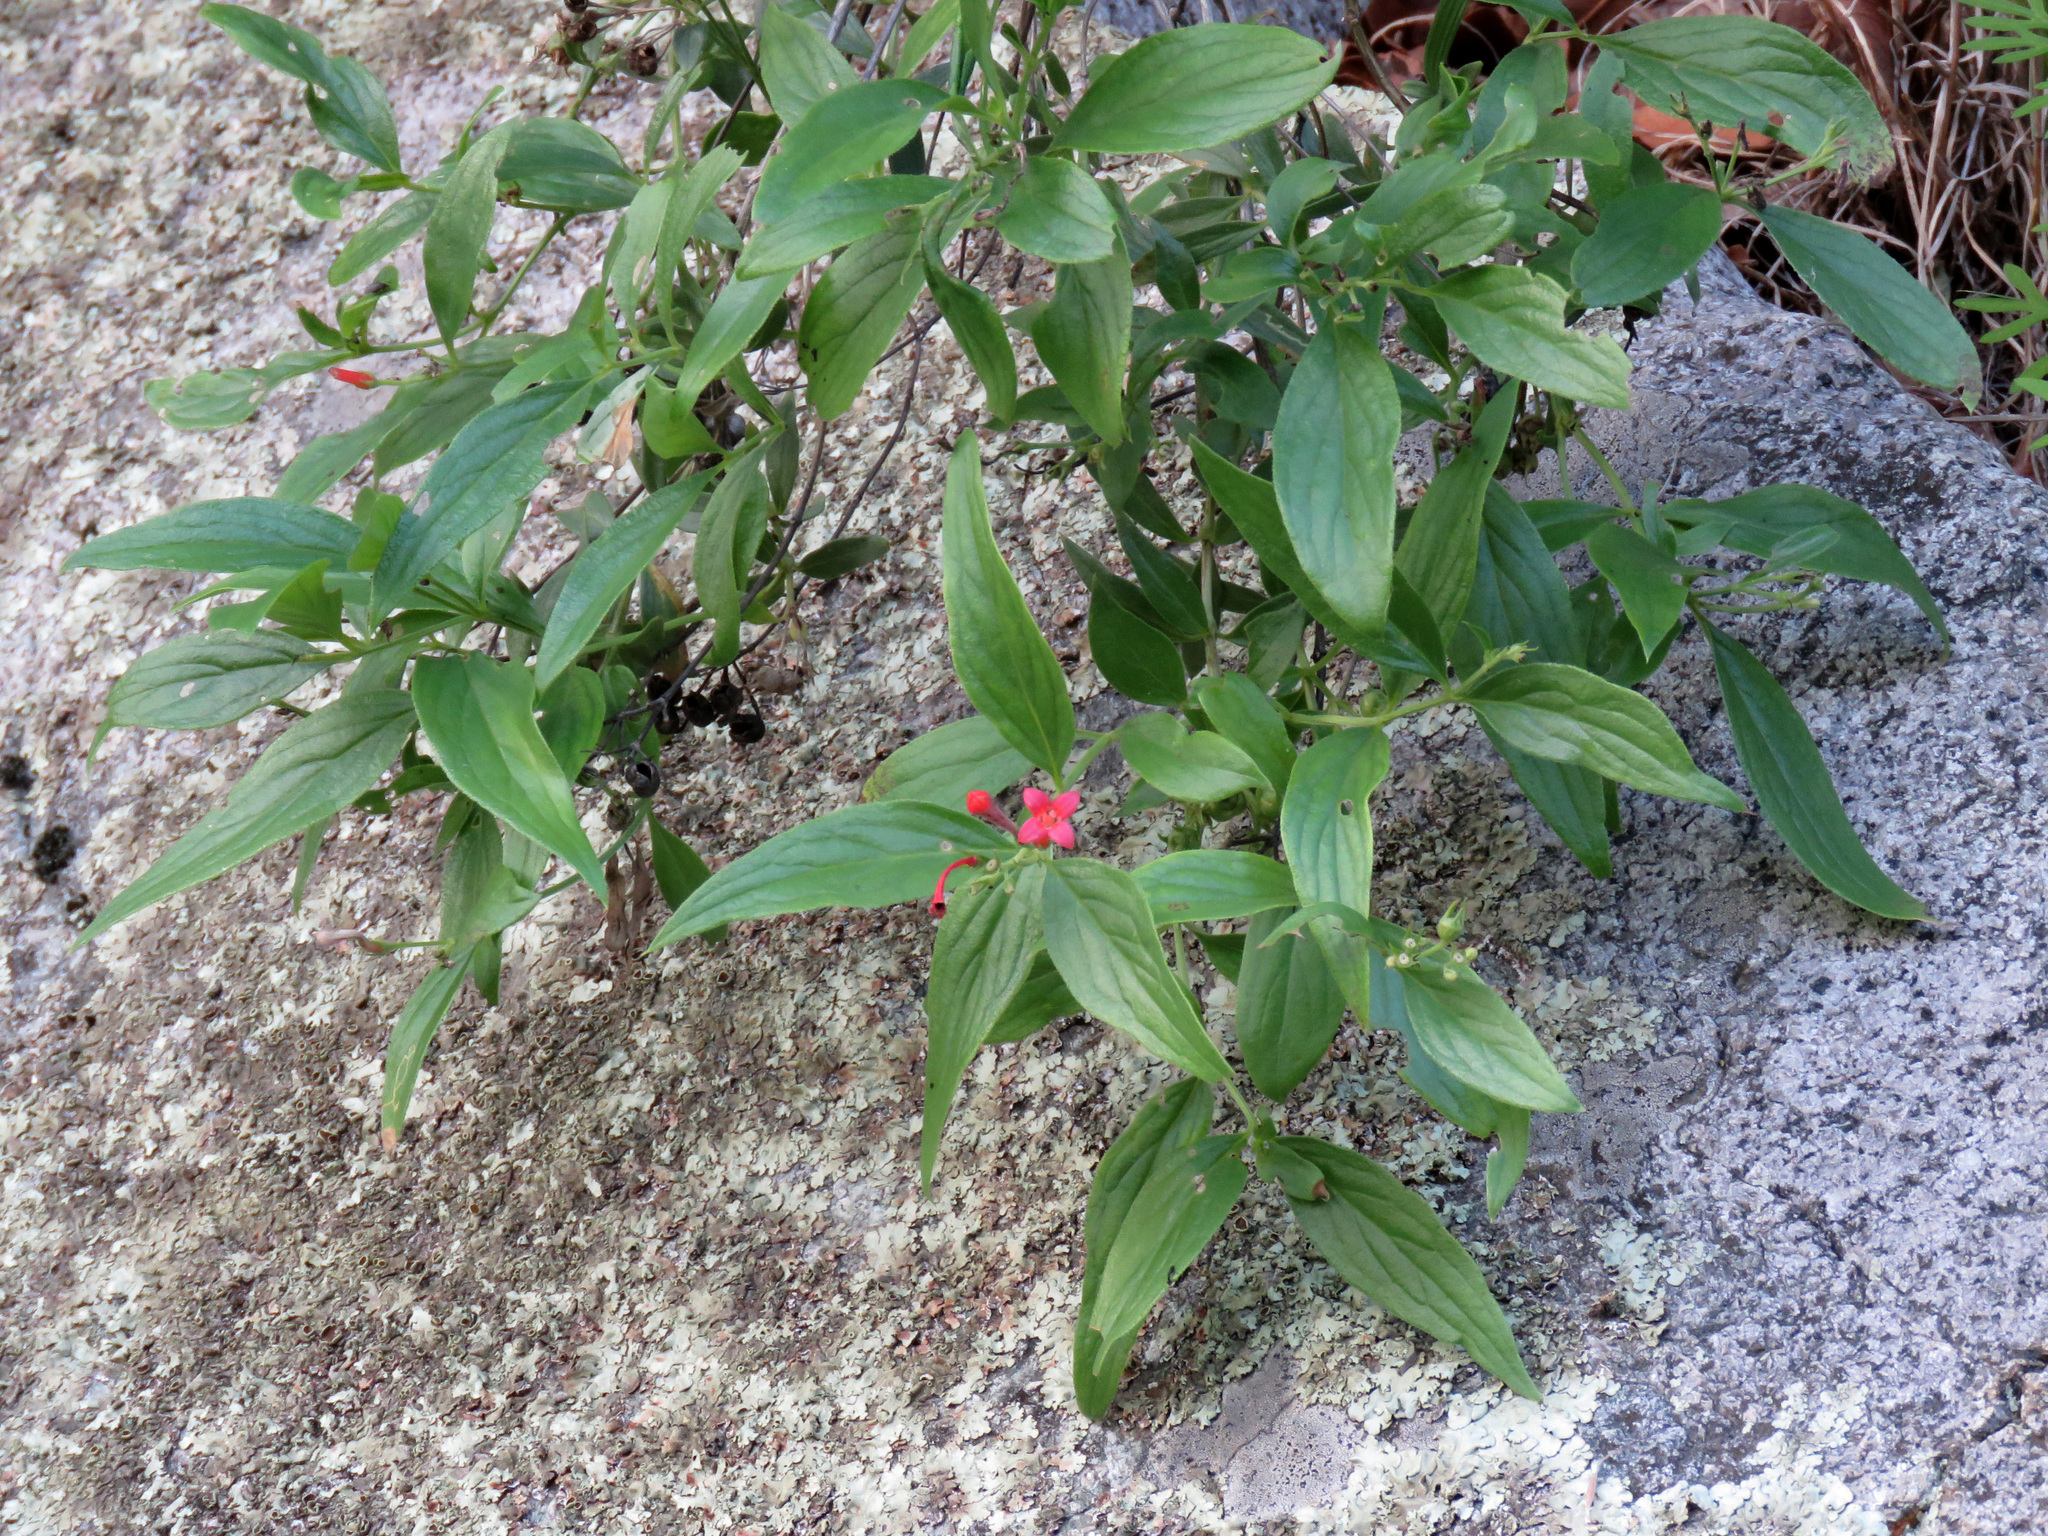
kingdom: Plantae
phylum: Tracheophyta
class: Magnoliopsida
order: Gentianales
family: Rubiaceae
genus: Bouvardia
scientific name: Bouvardia ternifolia
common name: Scarlet bouvardia
